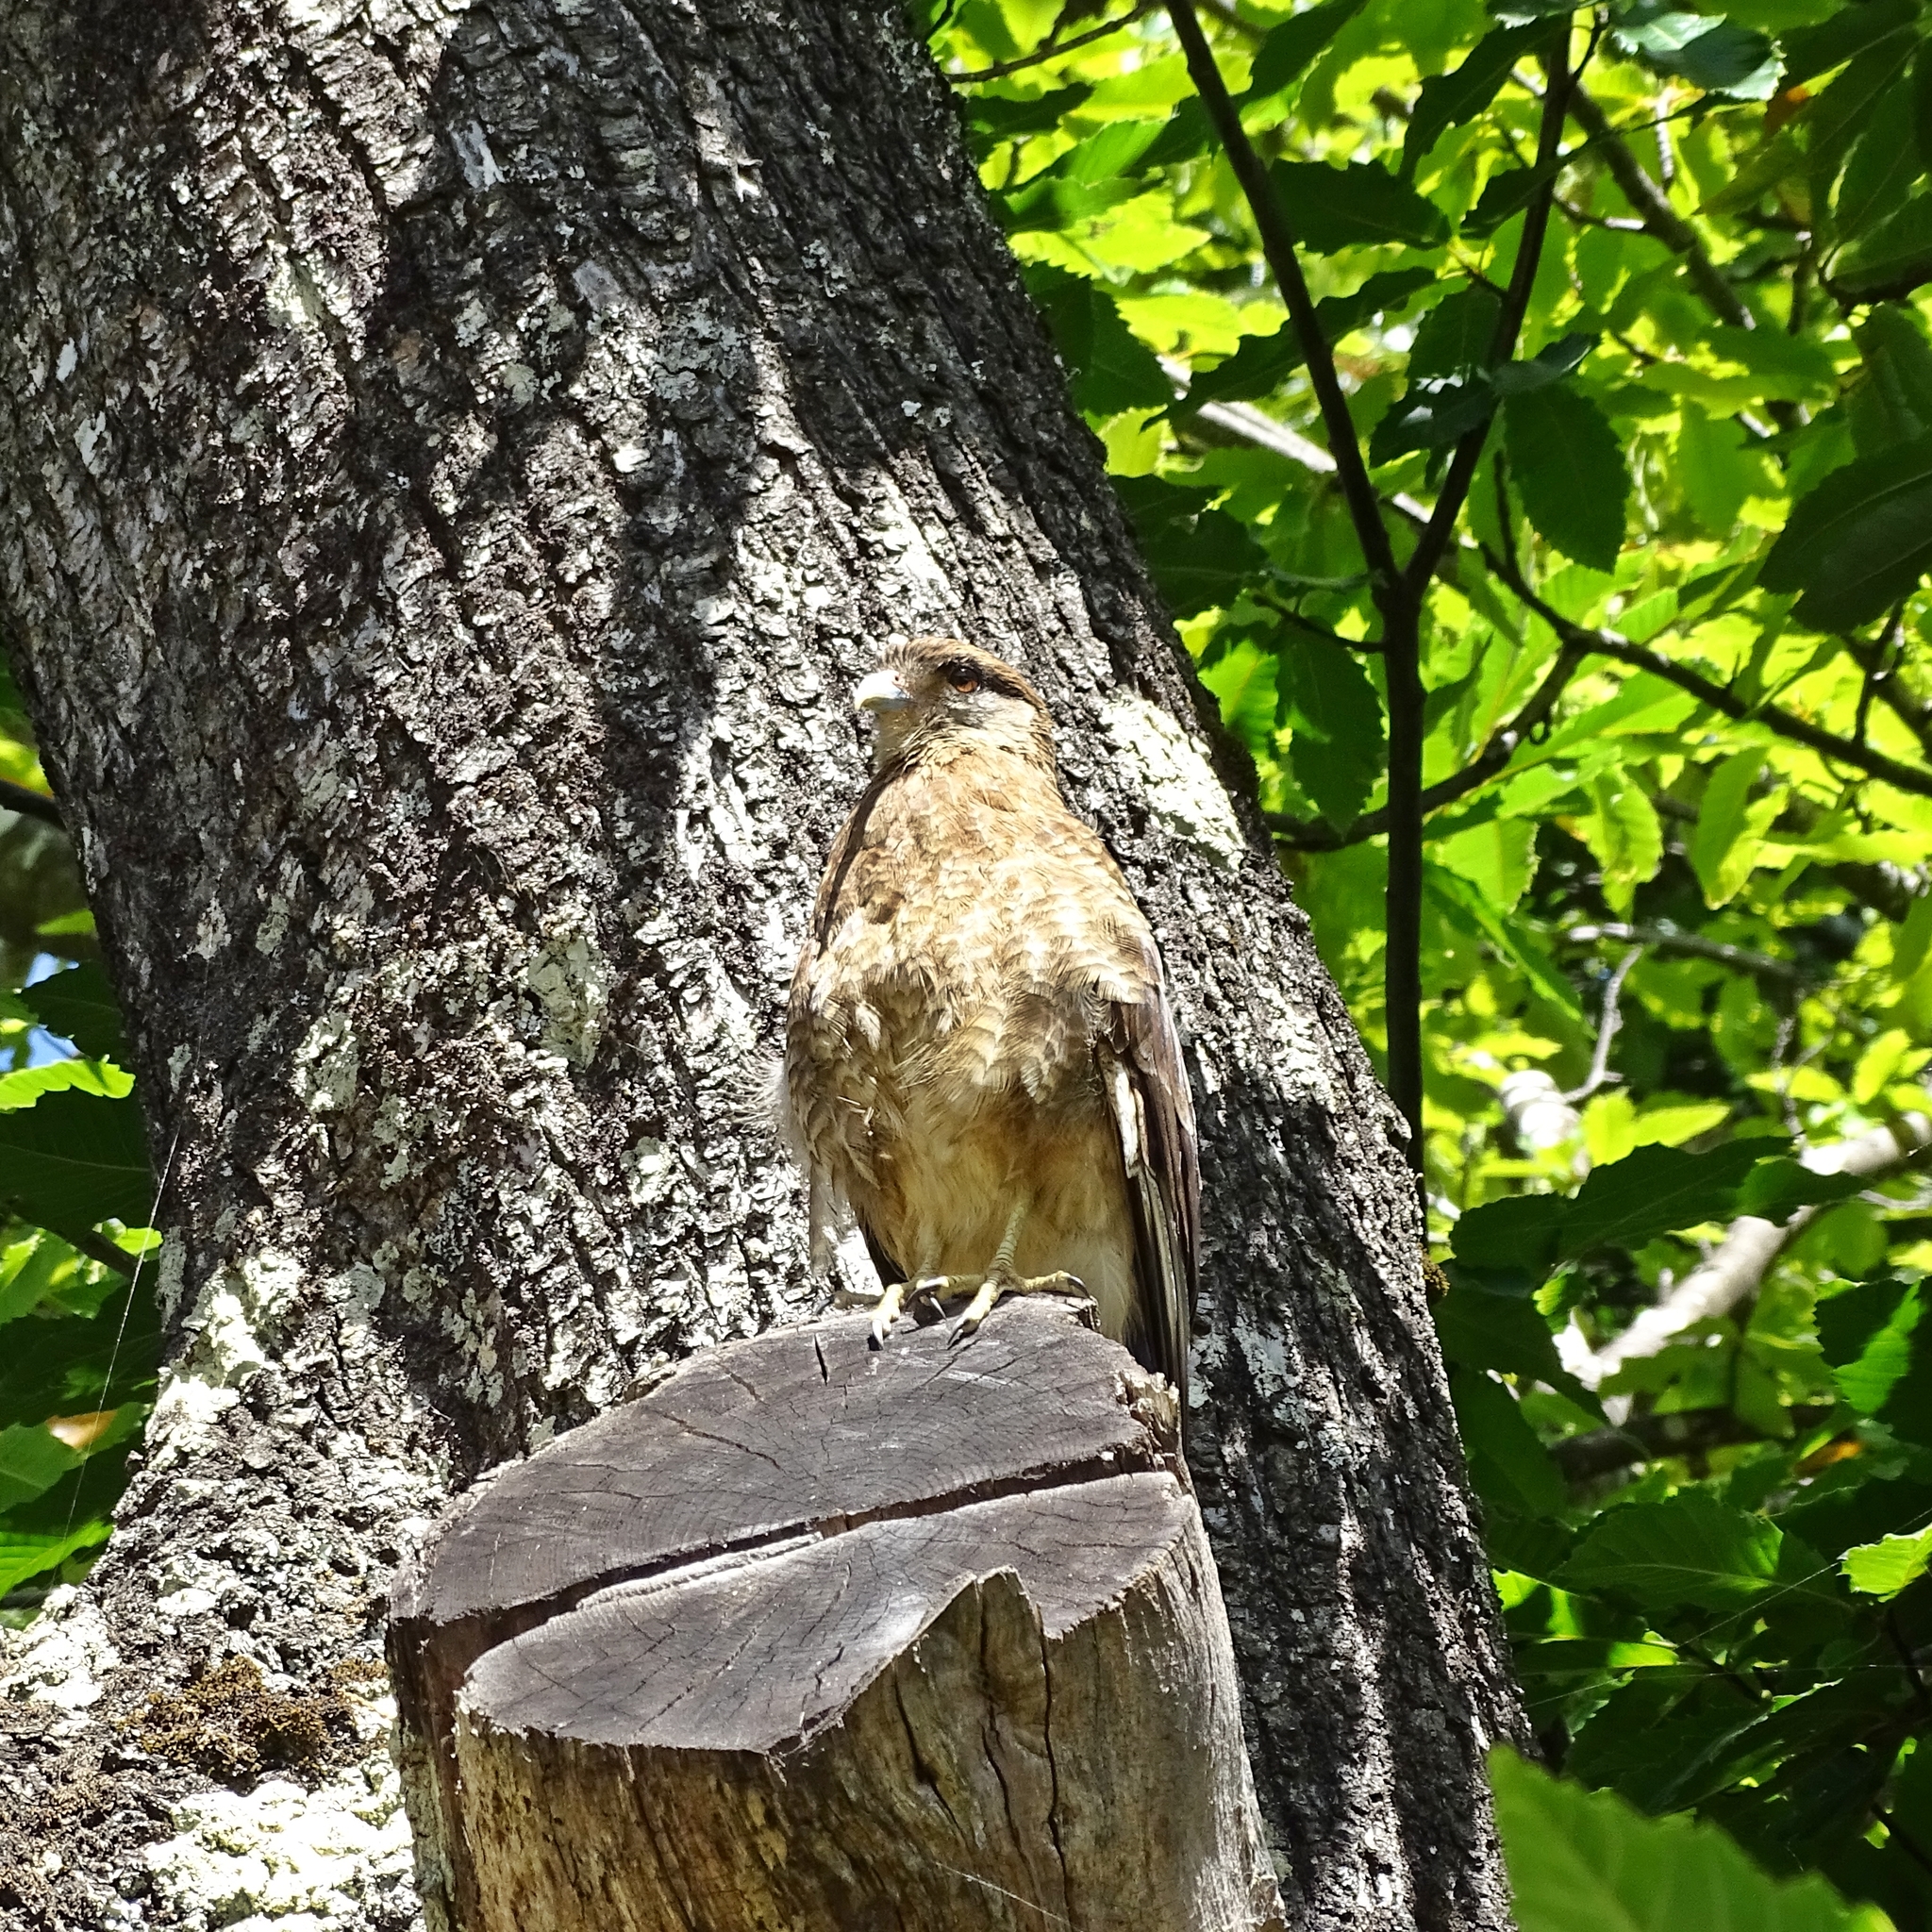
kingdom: Animalia
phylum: Chordata
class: Aves
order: Falconiformes
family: Falconidae
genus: Daptrius
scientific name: Daptrius
